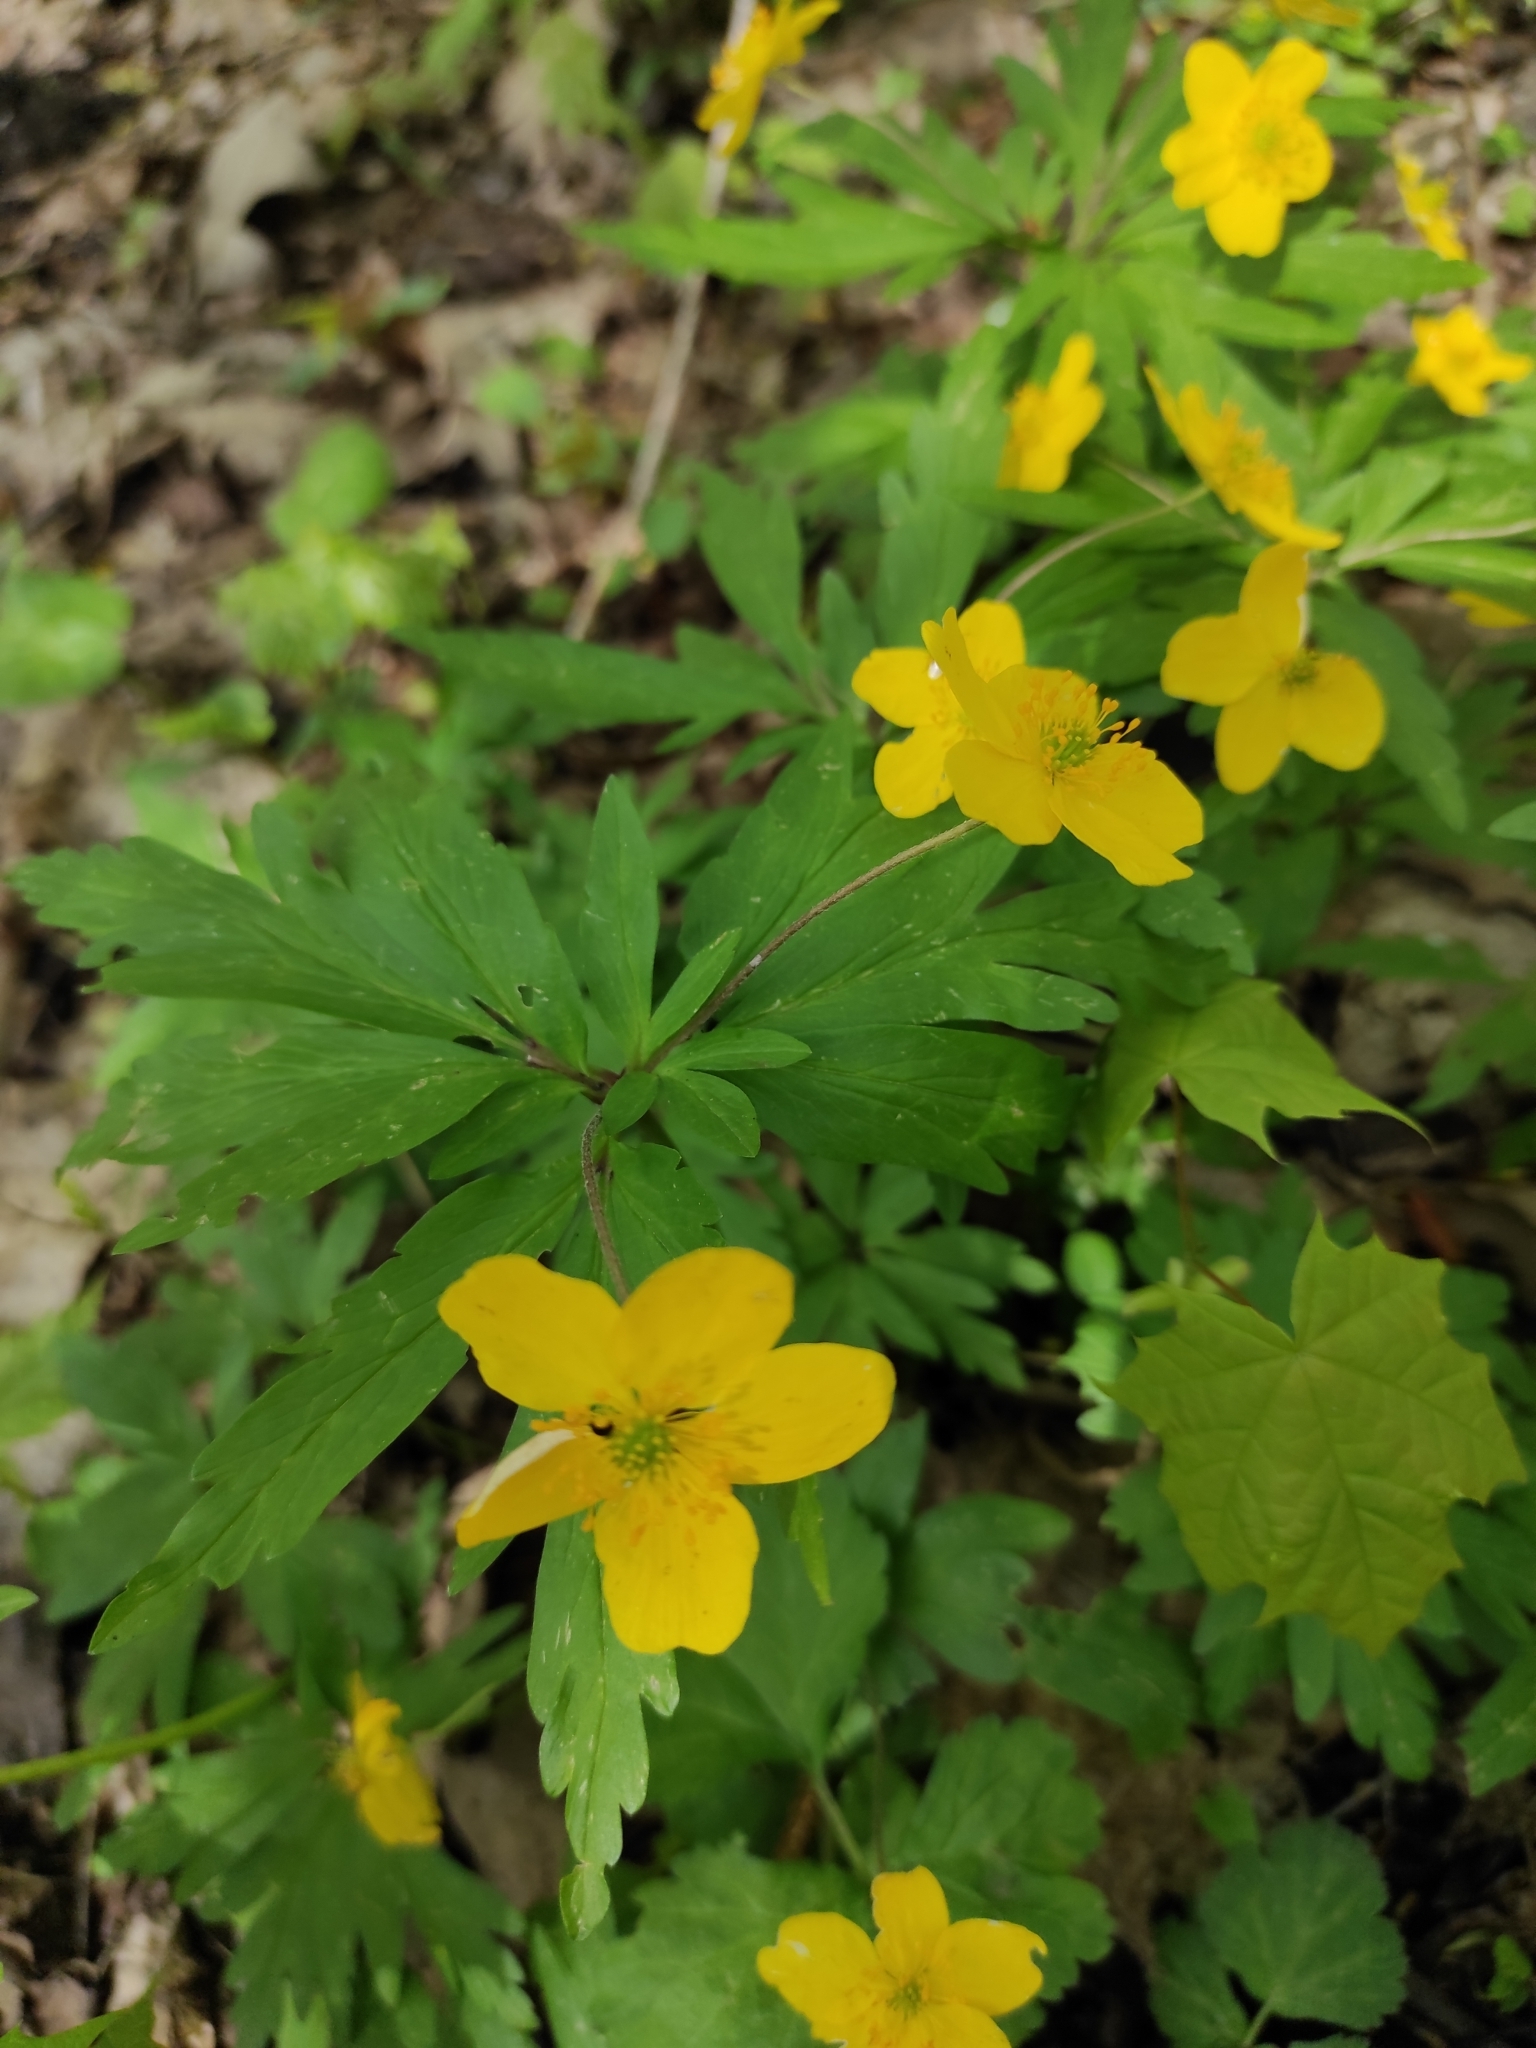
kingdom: Plantae
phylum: Tracheophyta
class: Magnoliopsida
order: Ranunculales
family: Ranunculaceae
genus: Anemone
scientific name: Anemone ranunculoides
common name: Yellow anemone
